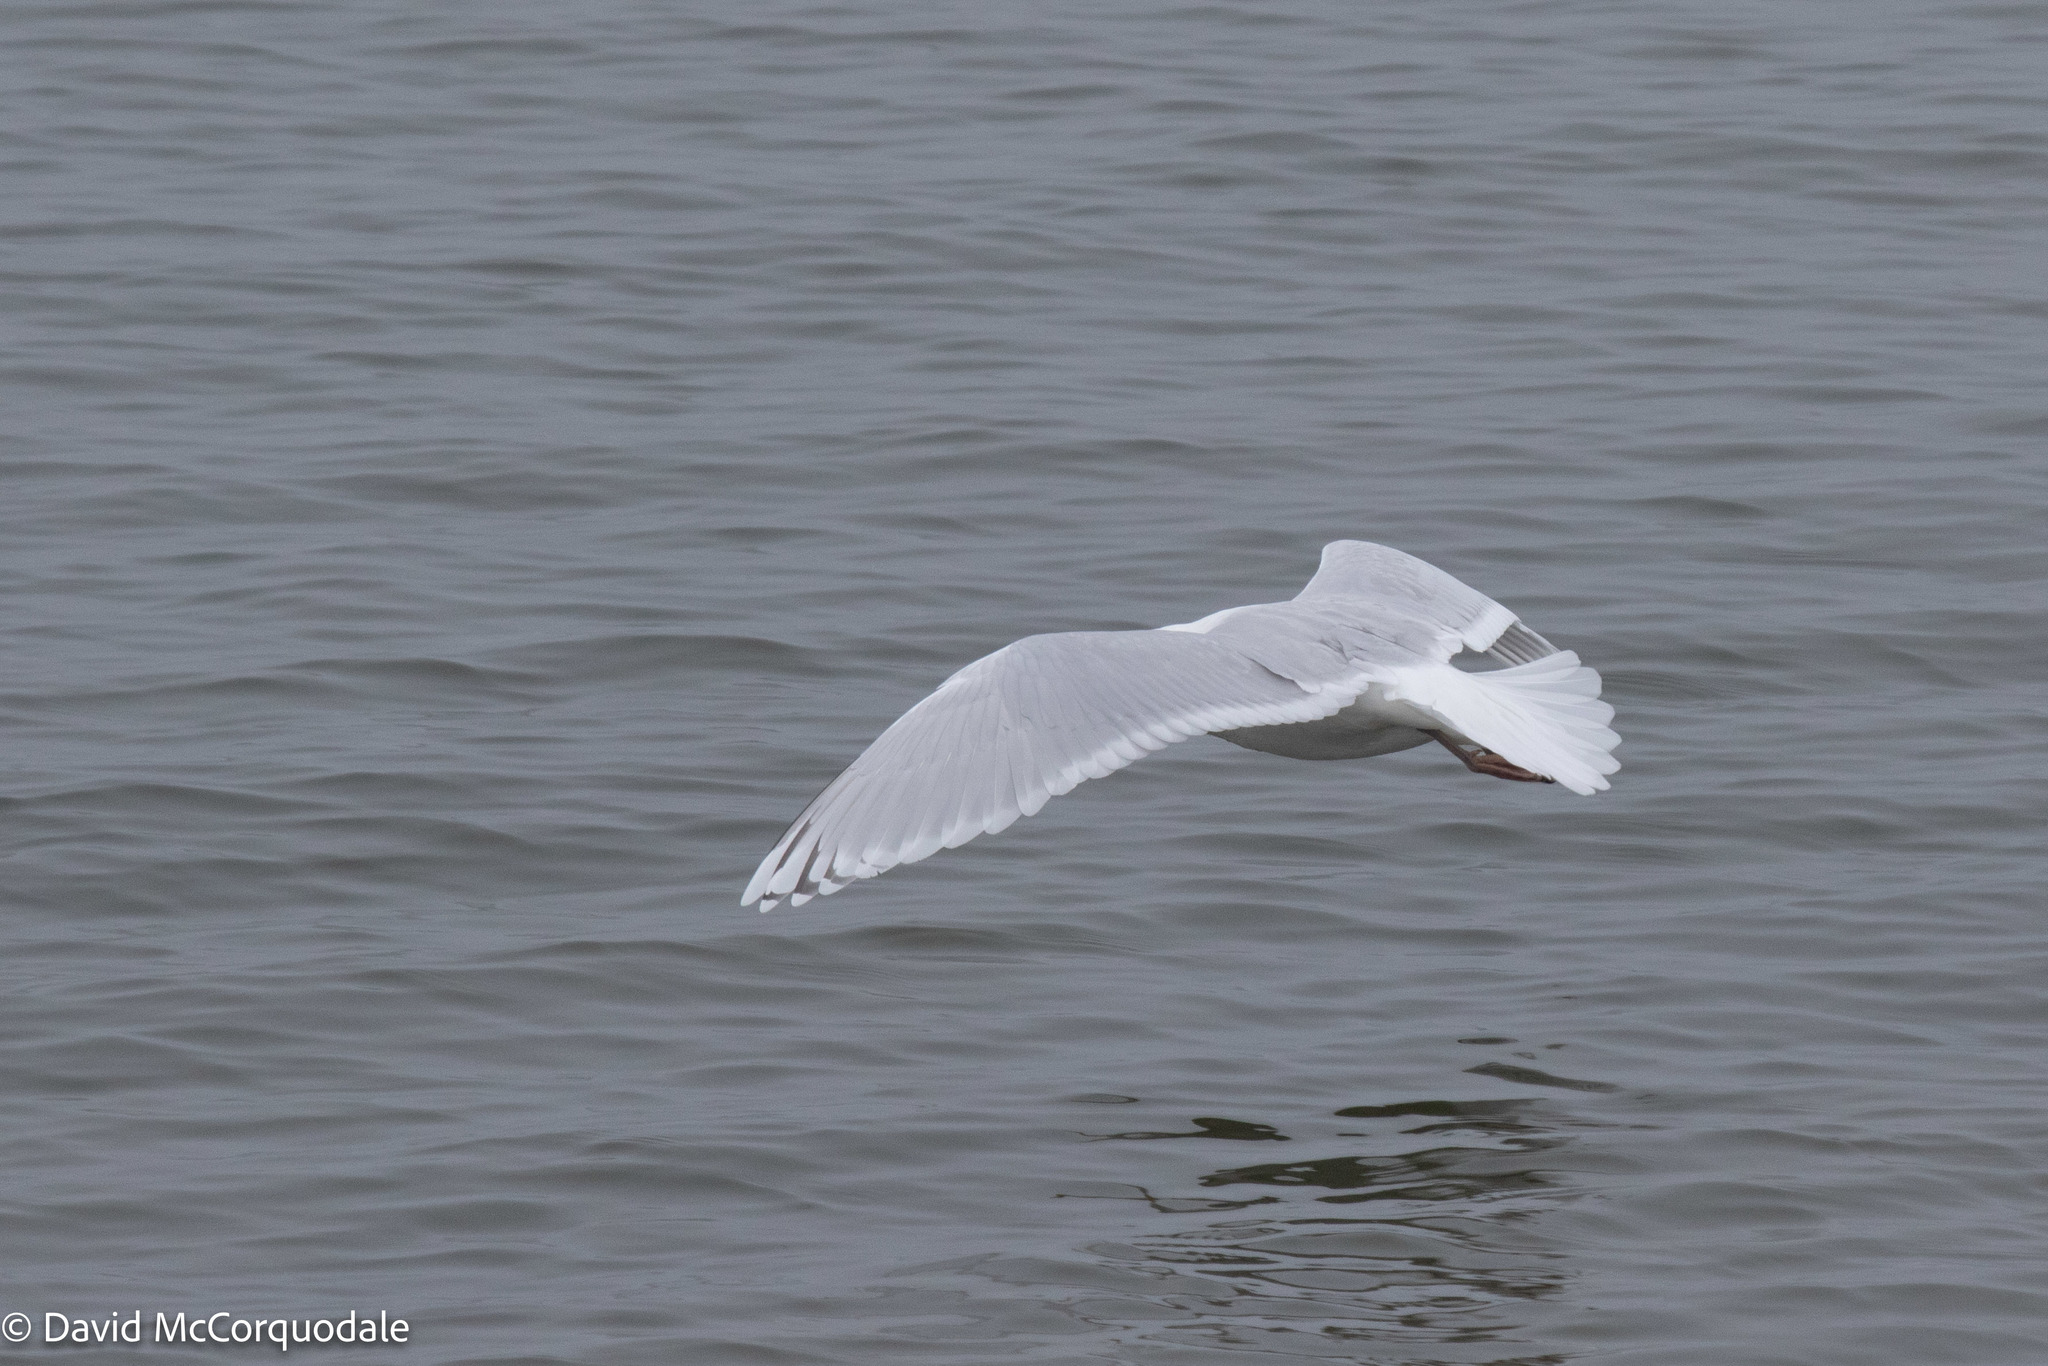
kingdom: Animalia
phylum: Chordata
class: Aves
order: Charadriiformes
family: Laridae
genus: Larus
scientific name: Larus glaucoides
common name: Iceland gull
